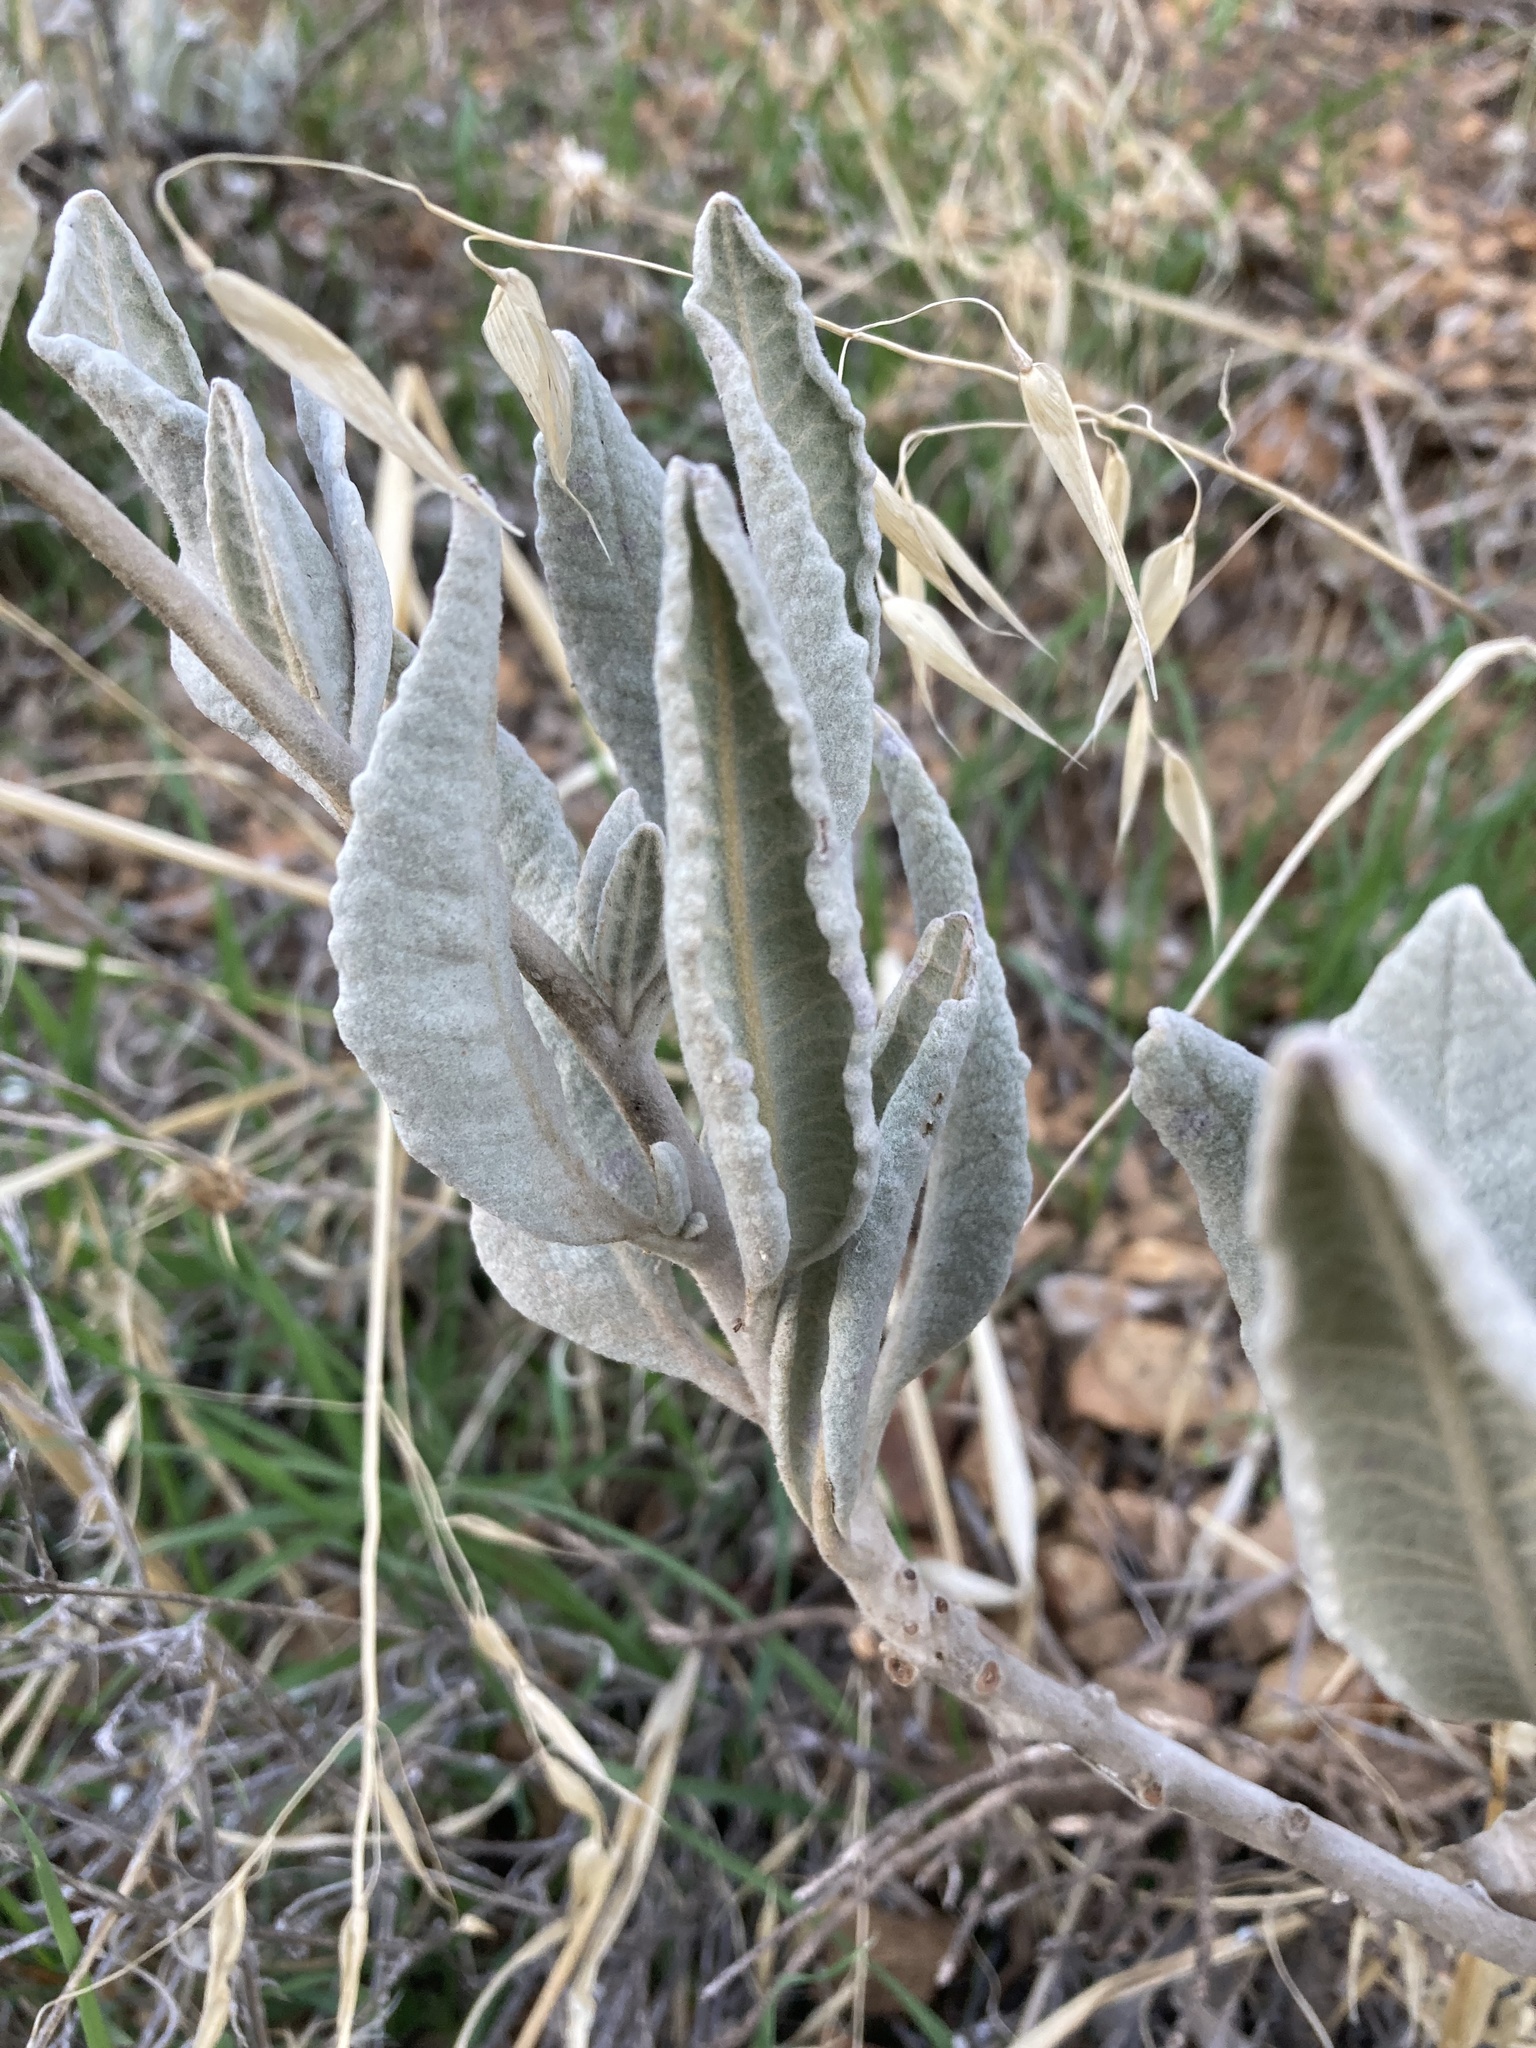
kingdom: Plantae
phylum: Tracheophyta
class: Magnoliopsida
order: Boraginales
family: Namaceae
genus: Eriodictyon
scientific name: Eriodictyon tomentosum
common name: Woolly yerba-santa
